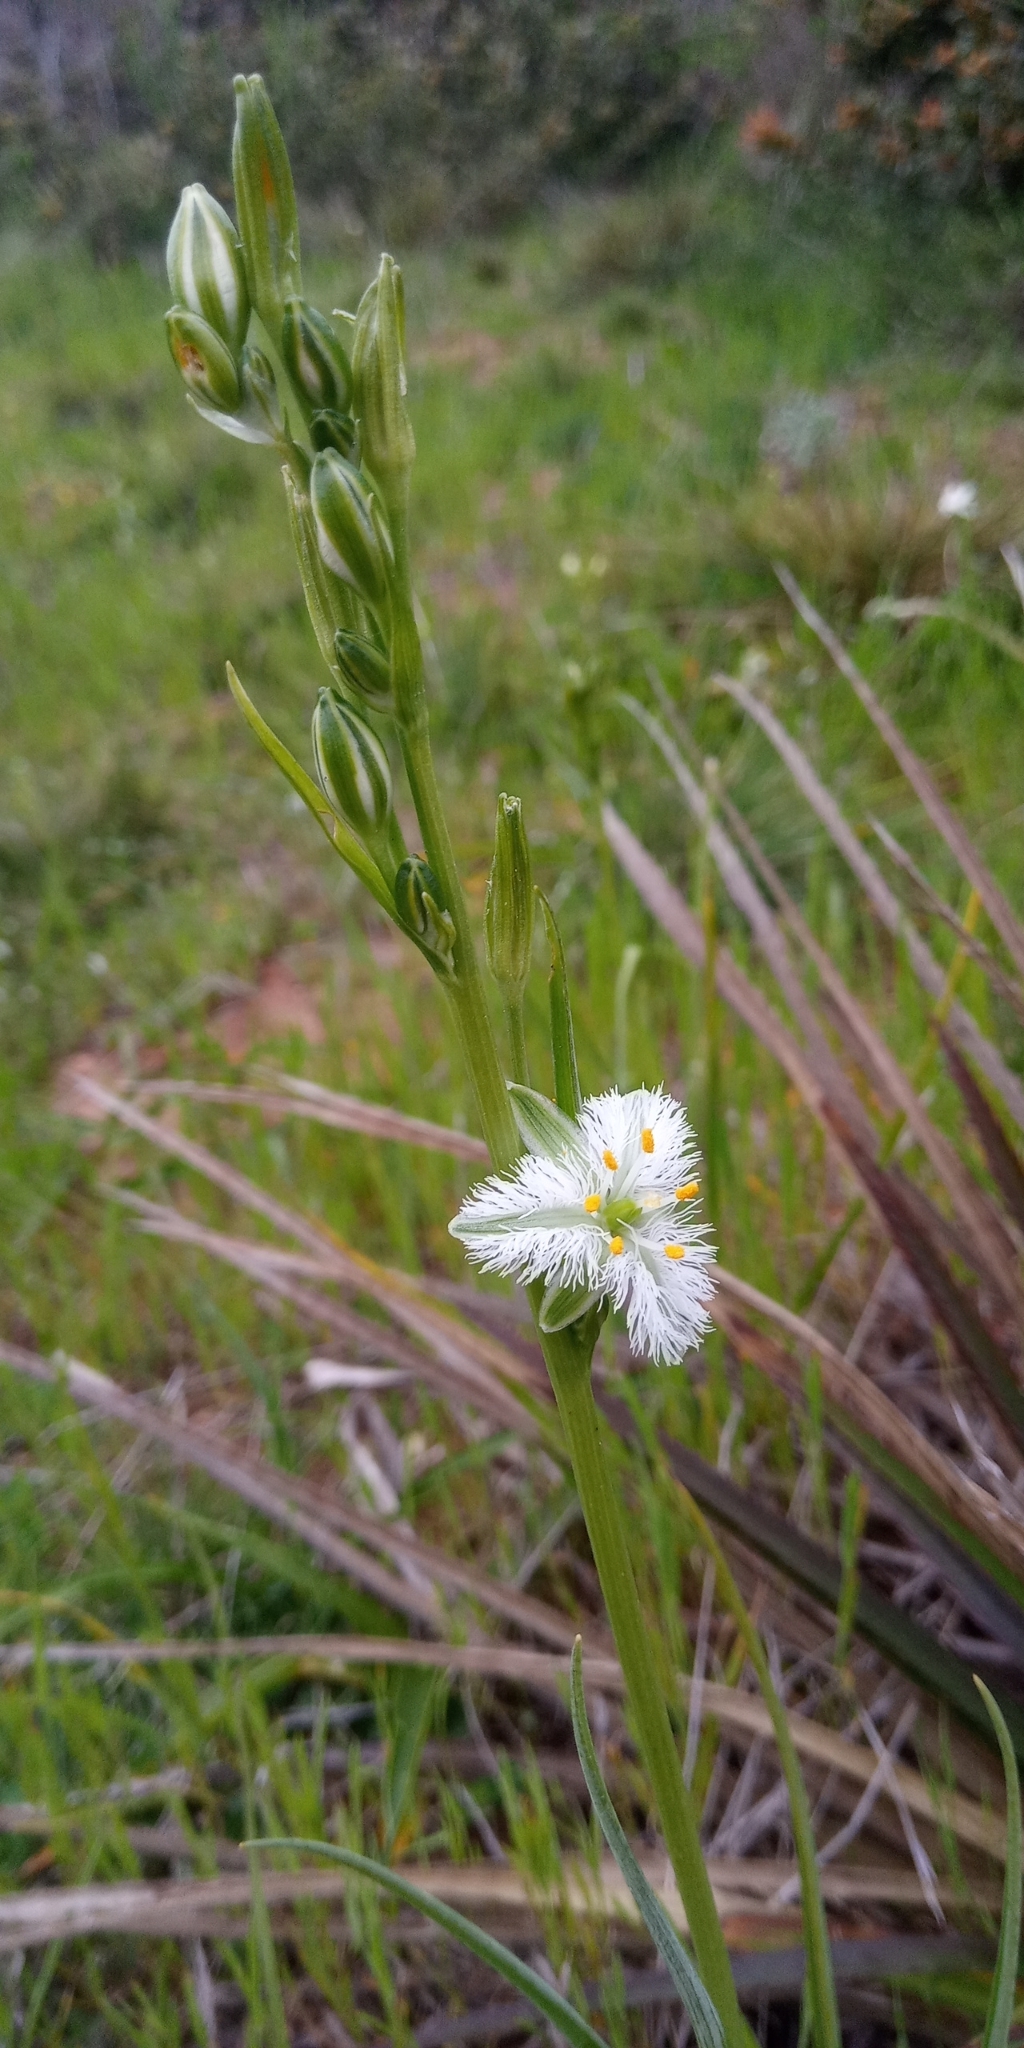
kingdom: Plantae
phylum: Tracheophyta
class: Liliopsida
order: Asparagales
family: Asparagaceae
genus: Trichopetalum
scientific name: Trichopetalum plumosum
